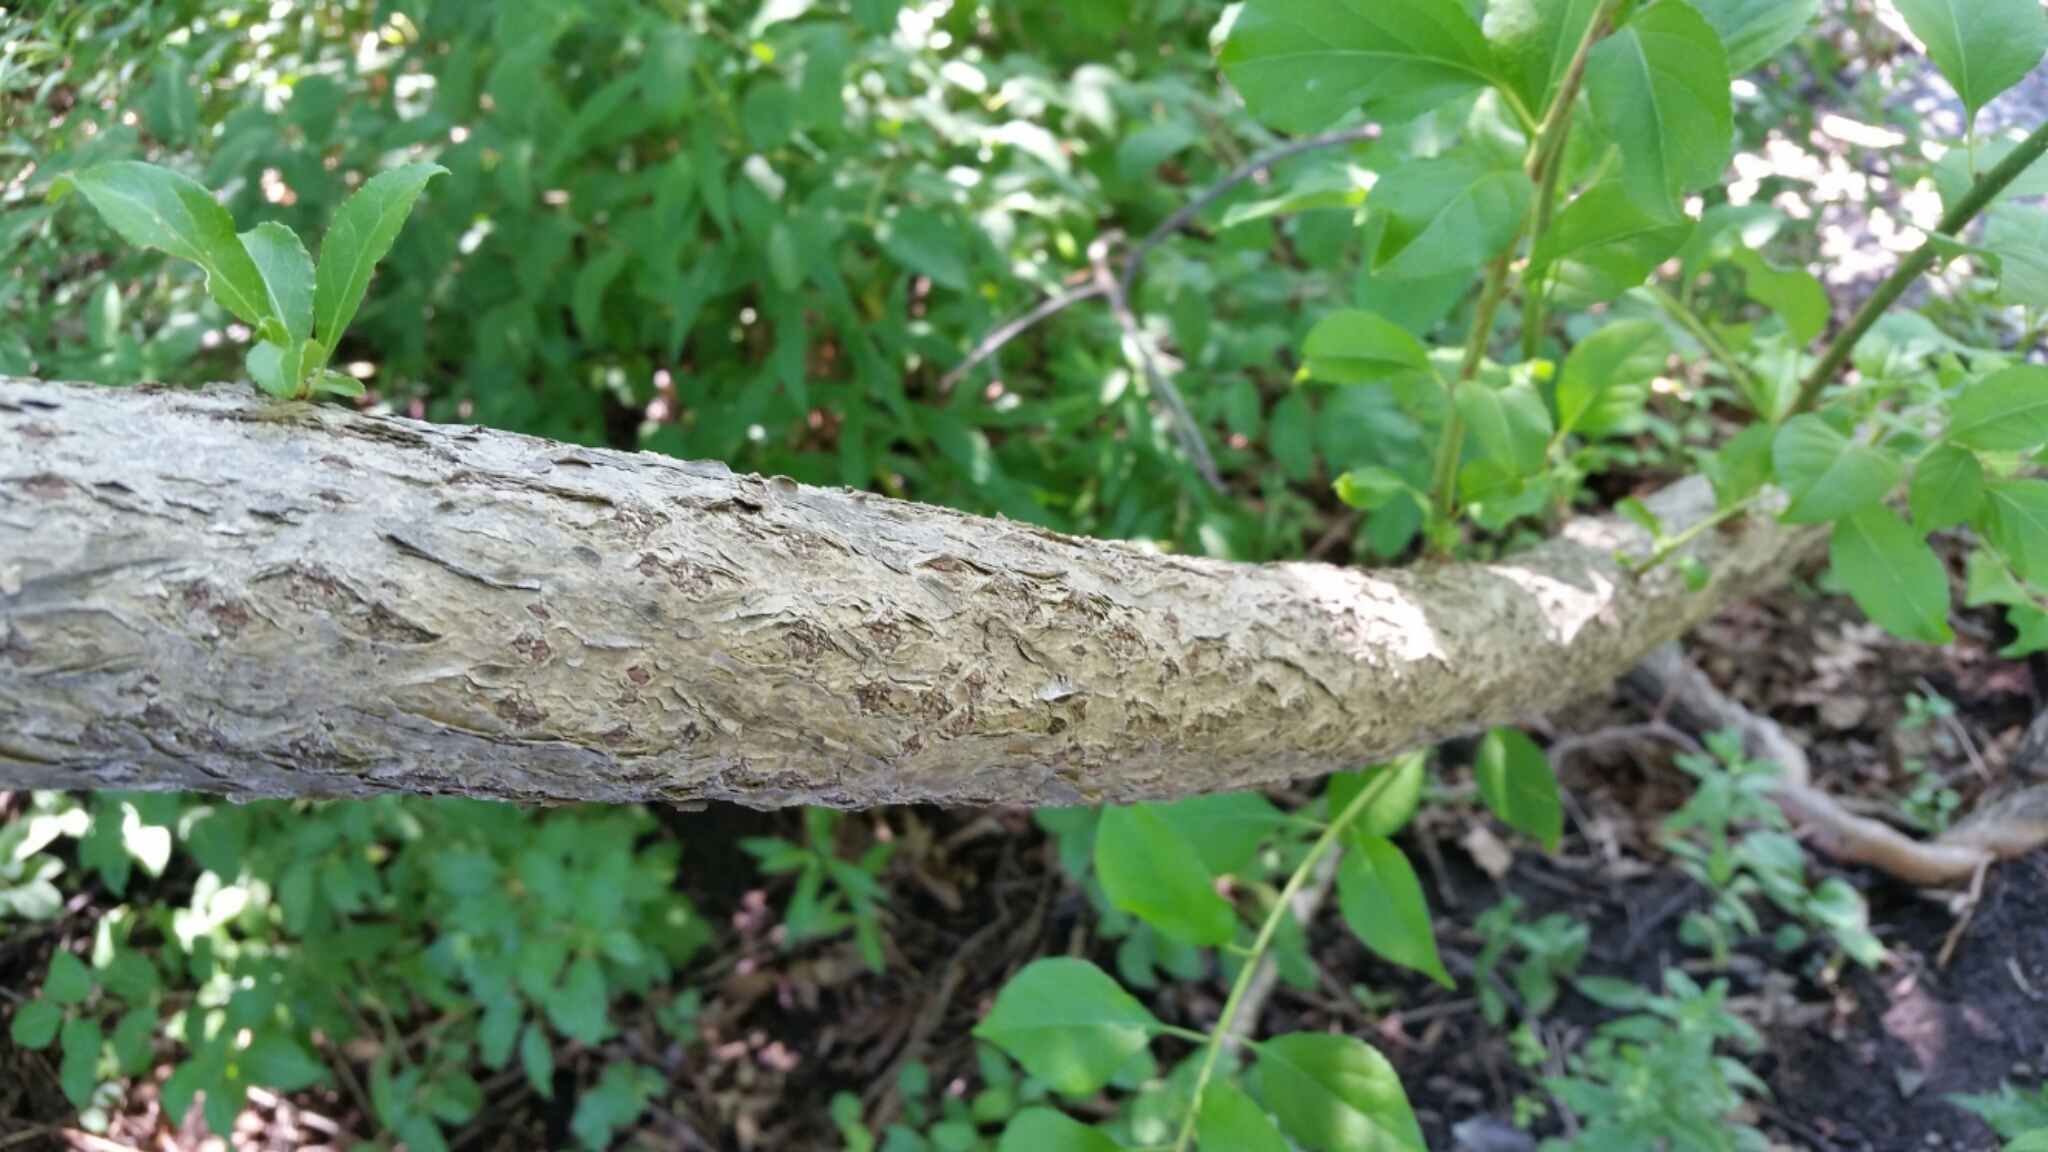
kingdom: Plantae
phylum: Tracheophyta
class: Magnoliopsida
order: Celastrales
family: Celastraceae
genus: Celastrus
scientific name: Celastrus orbiculatus
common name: Oriental bittersweet
